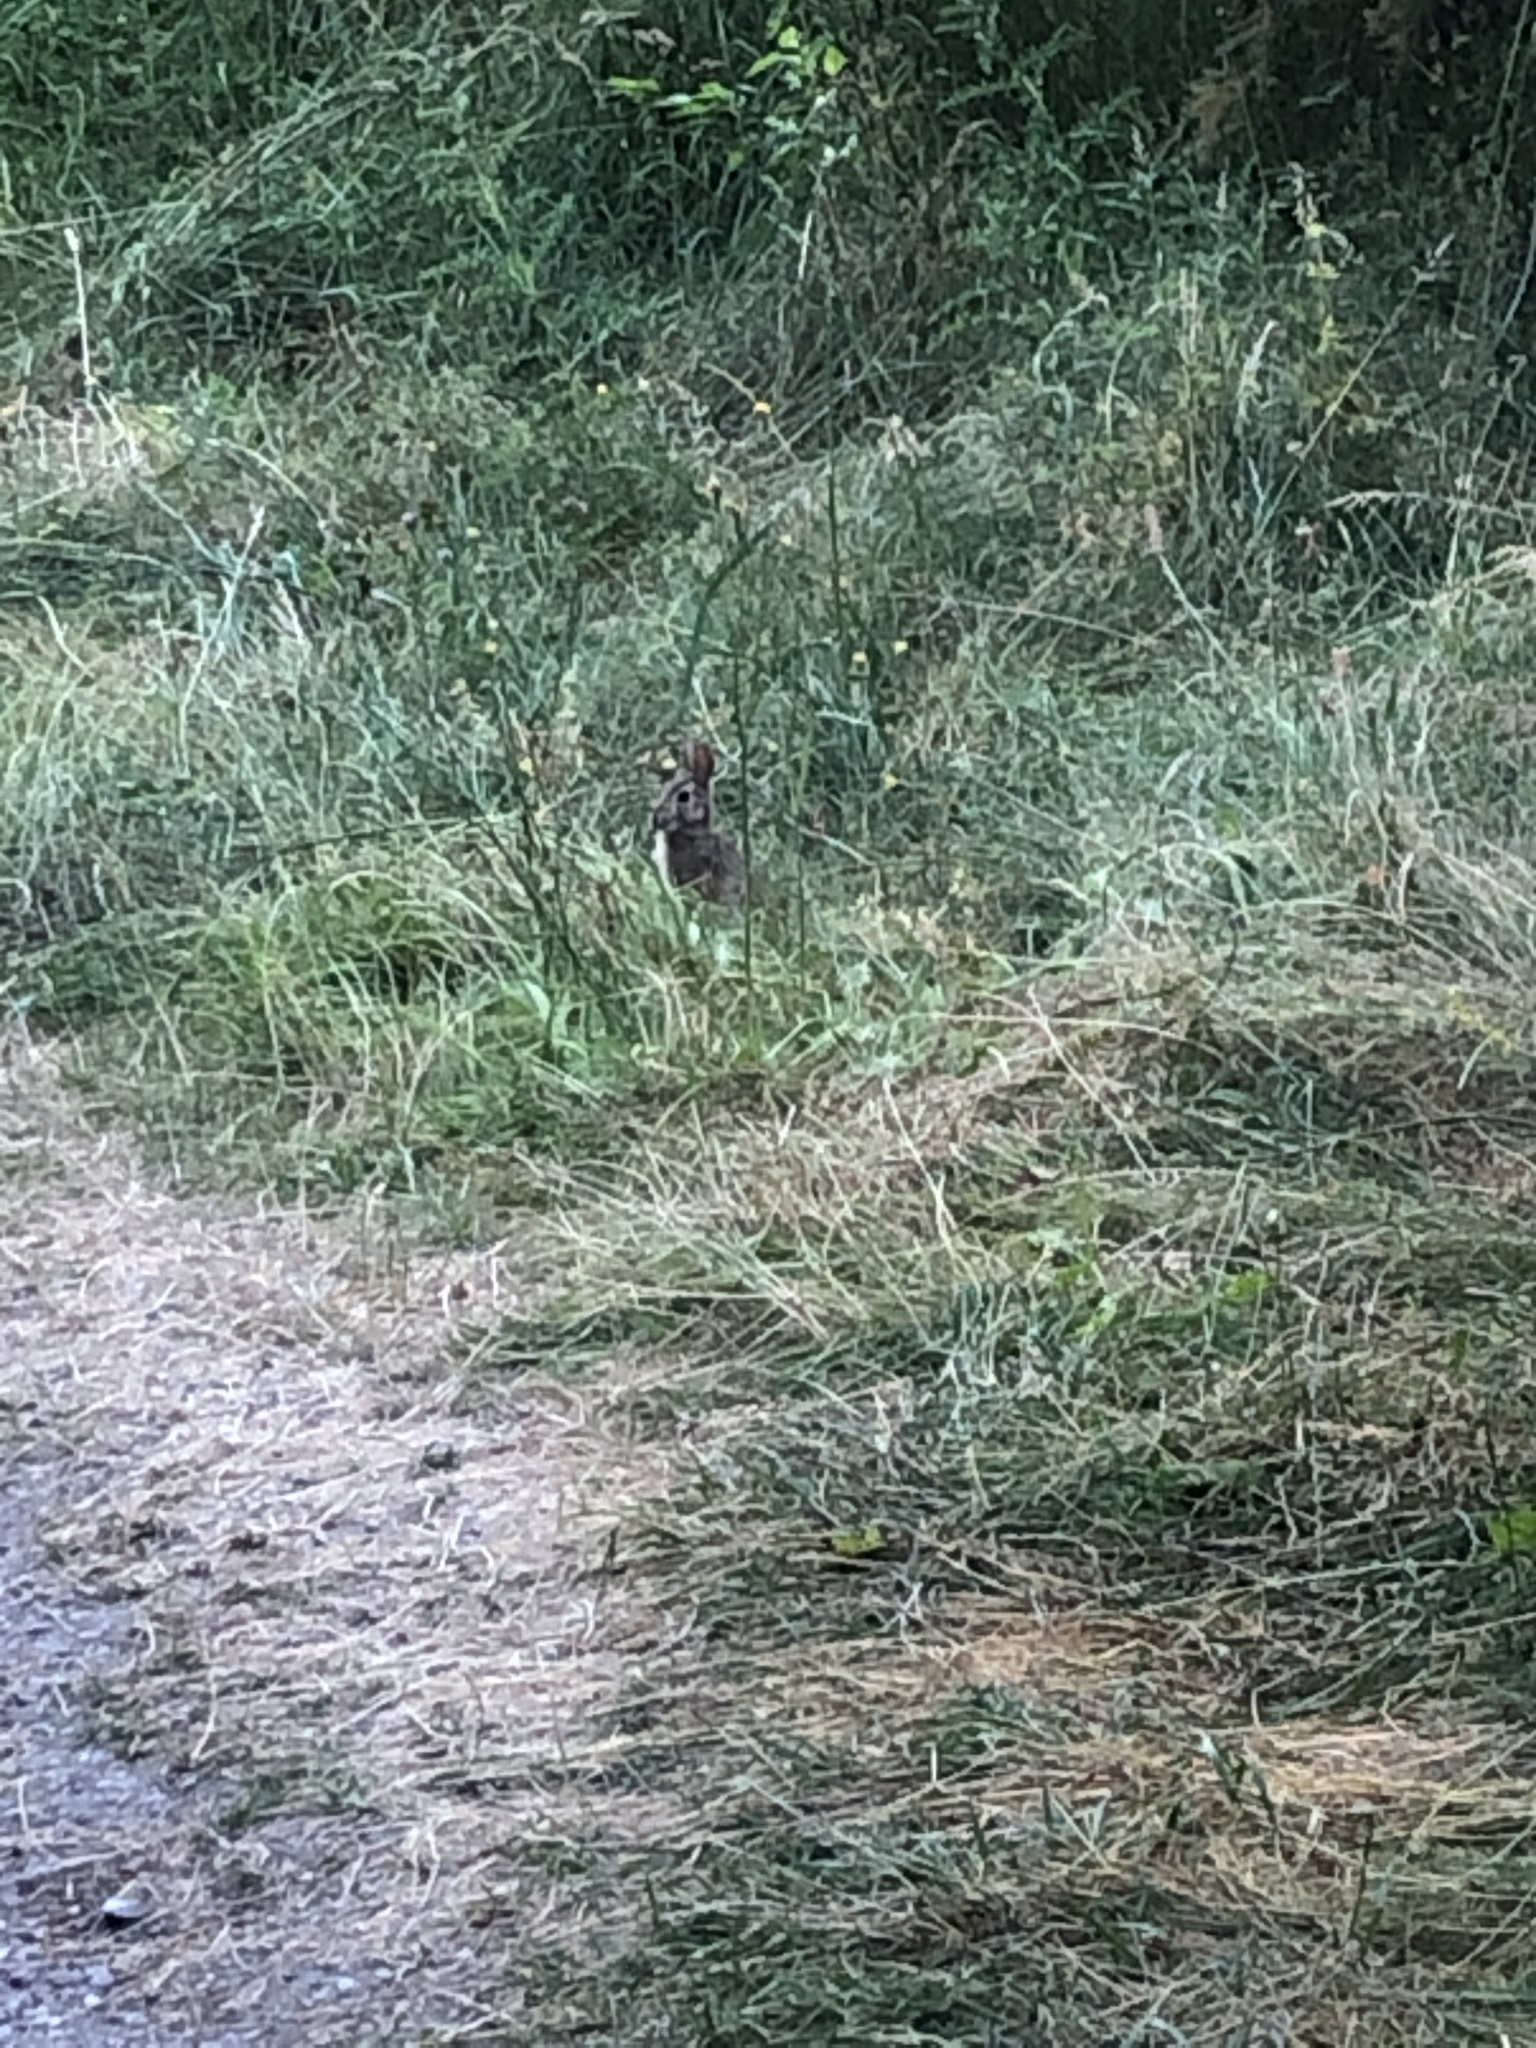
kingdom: Animalia
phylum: Chordata
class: Mammalia
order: Lagomorpha
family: Leporidae
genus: Sylvilagus
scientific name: Sylvilagus floridanus
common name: Eastern cottontail
